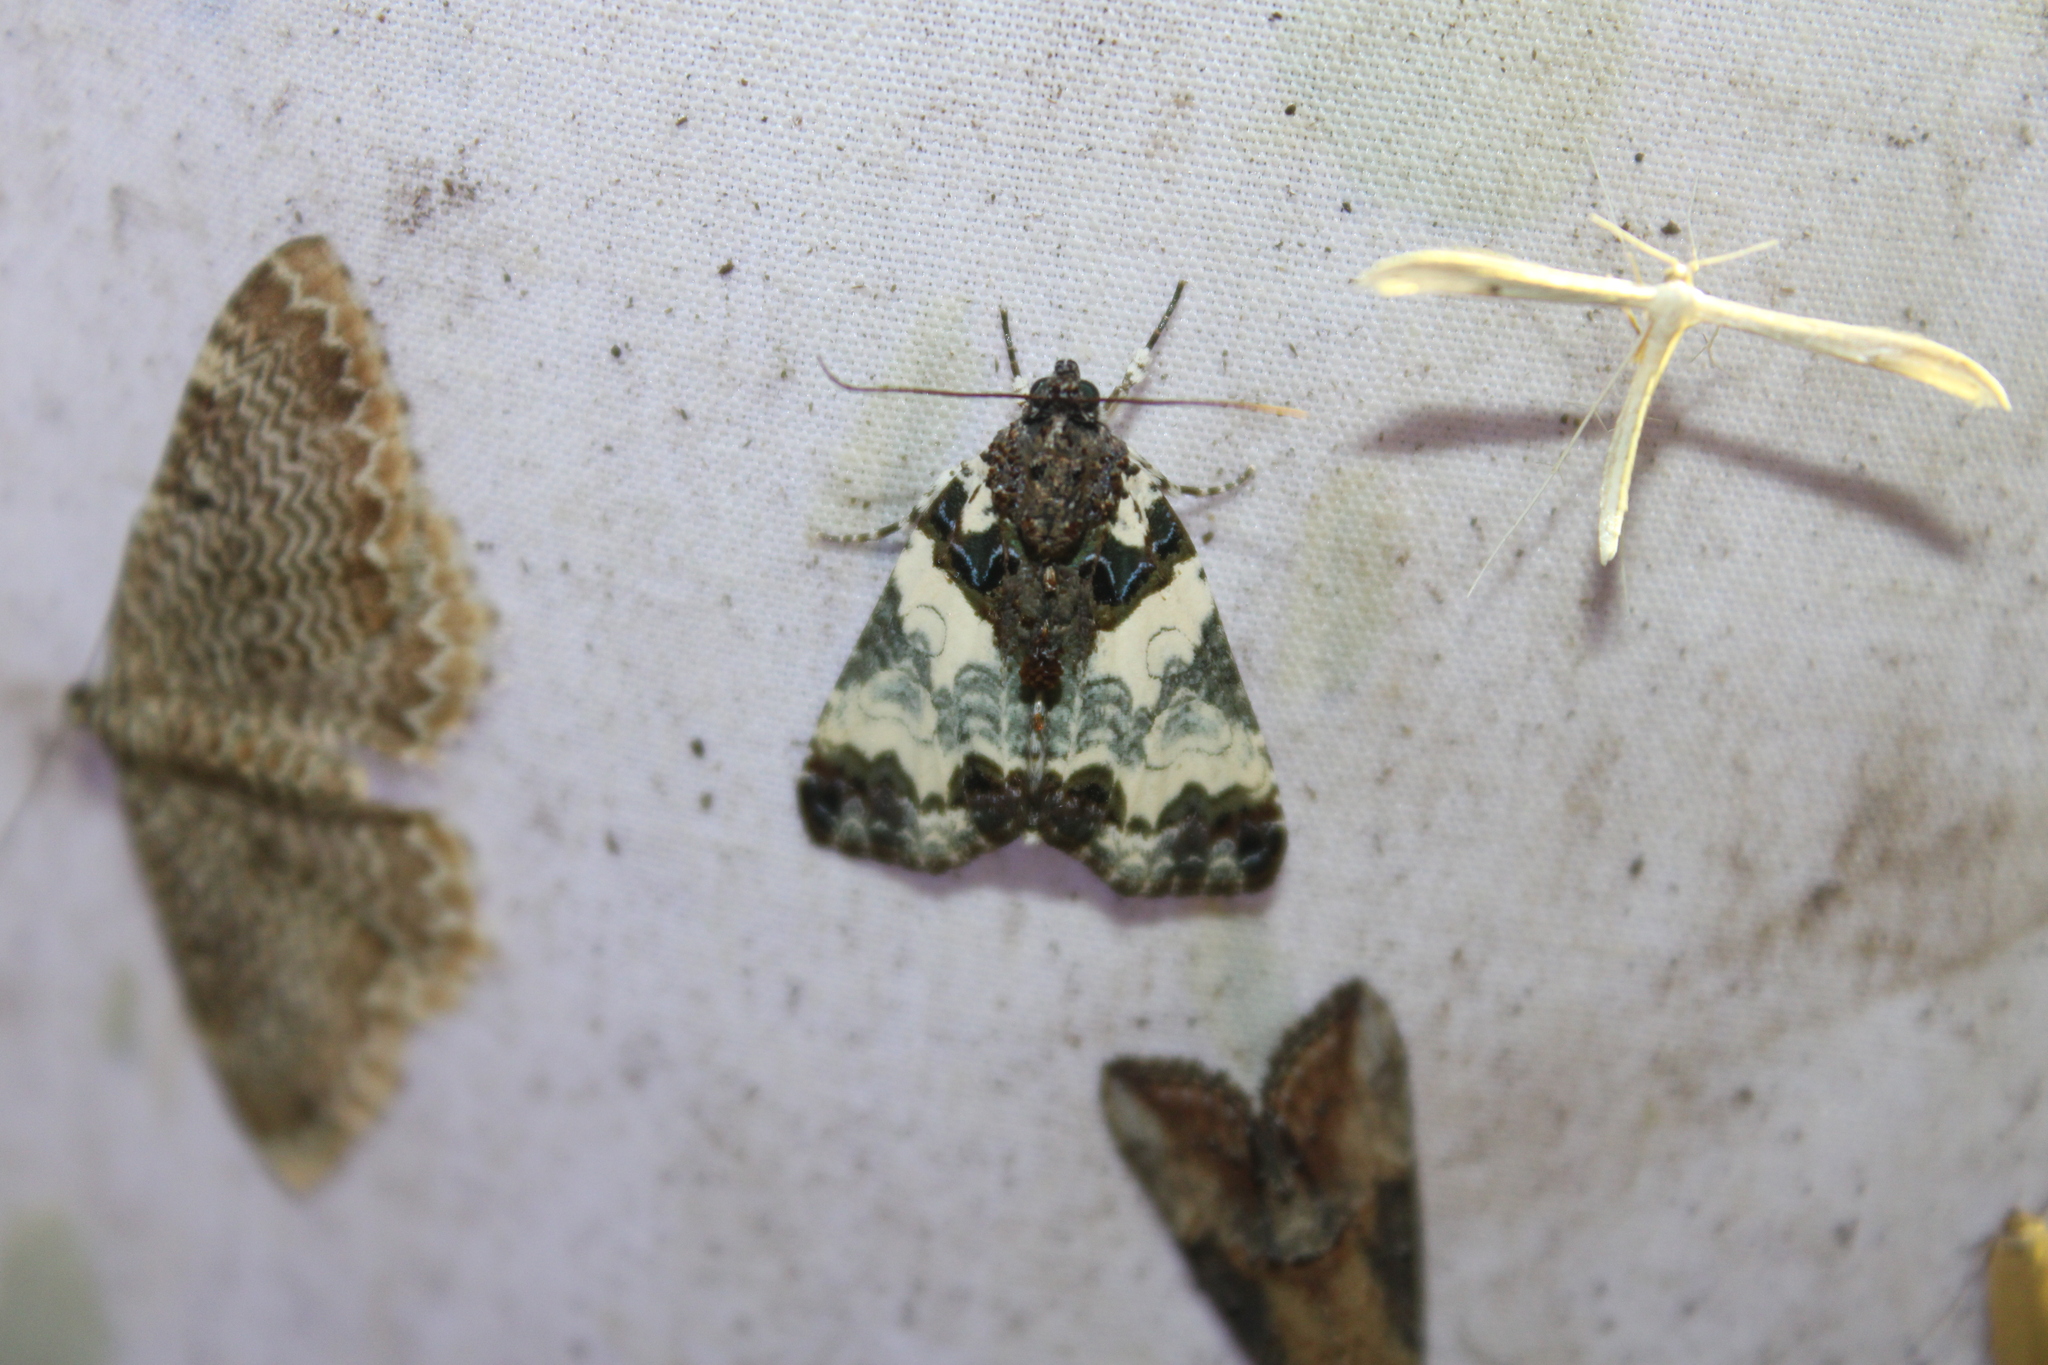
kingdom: Animalia
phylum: Arthropoda
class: Insecta
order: Lepidoptera
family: Noctuidae
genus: Cerma
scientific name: Cerma cerintha
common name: Tufted bird-dropping moth
